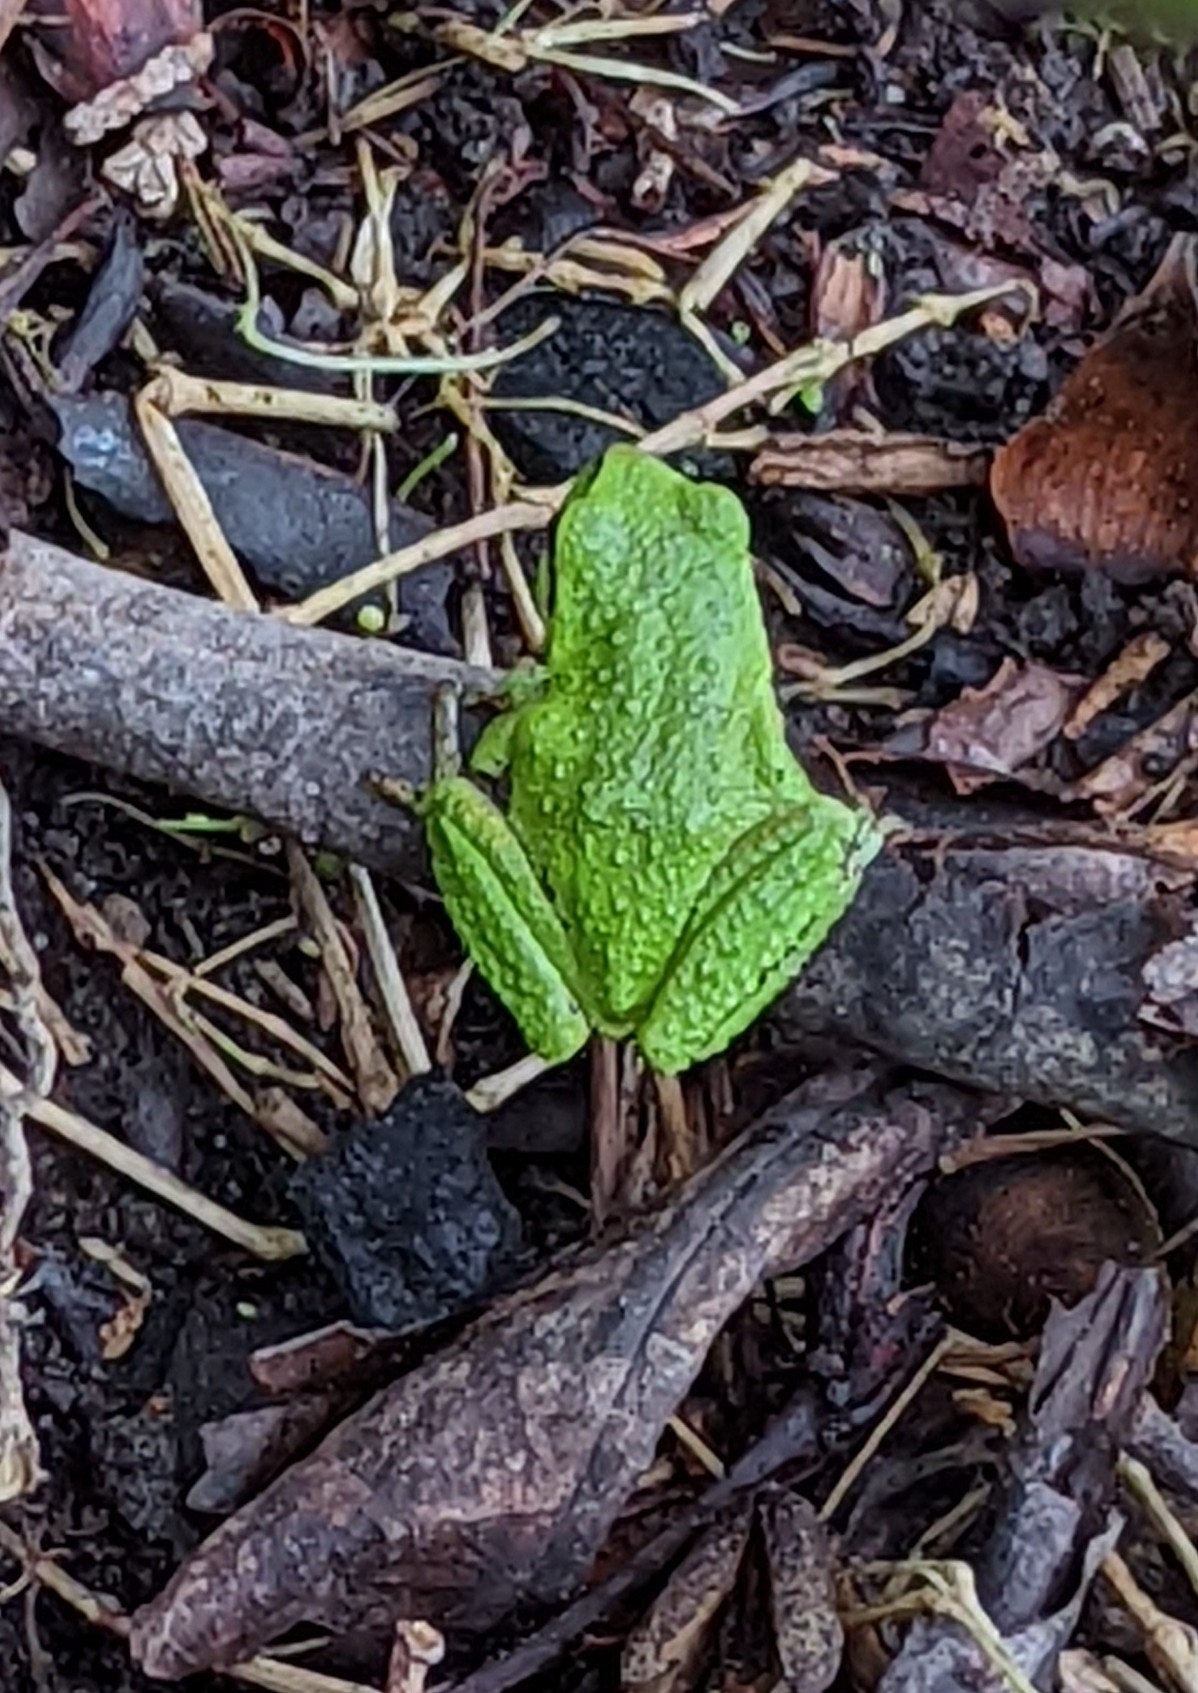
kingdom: Animalia
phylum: Chordata
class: Amphibia
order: Anura
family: Hylidae
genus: Pseudacris
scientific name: Pseudacris regilla
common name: Pacific chorus frog
